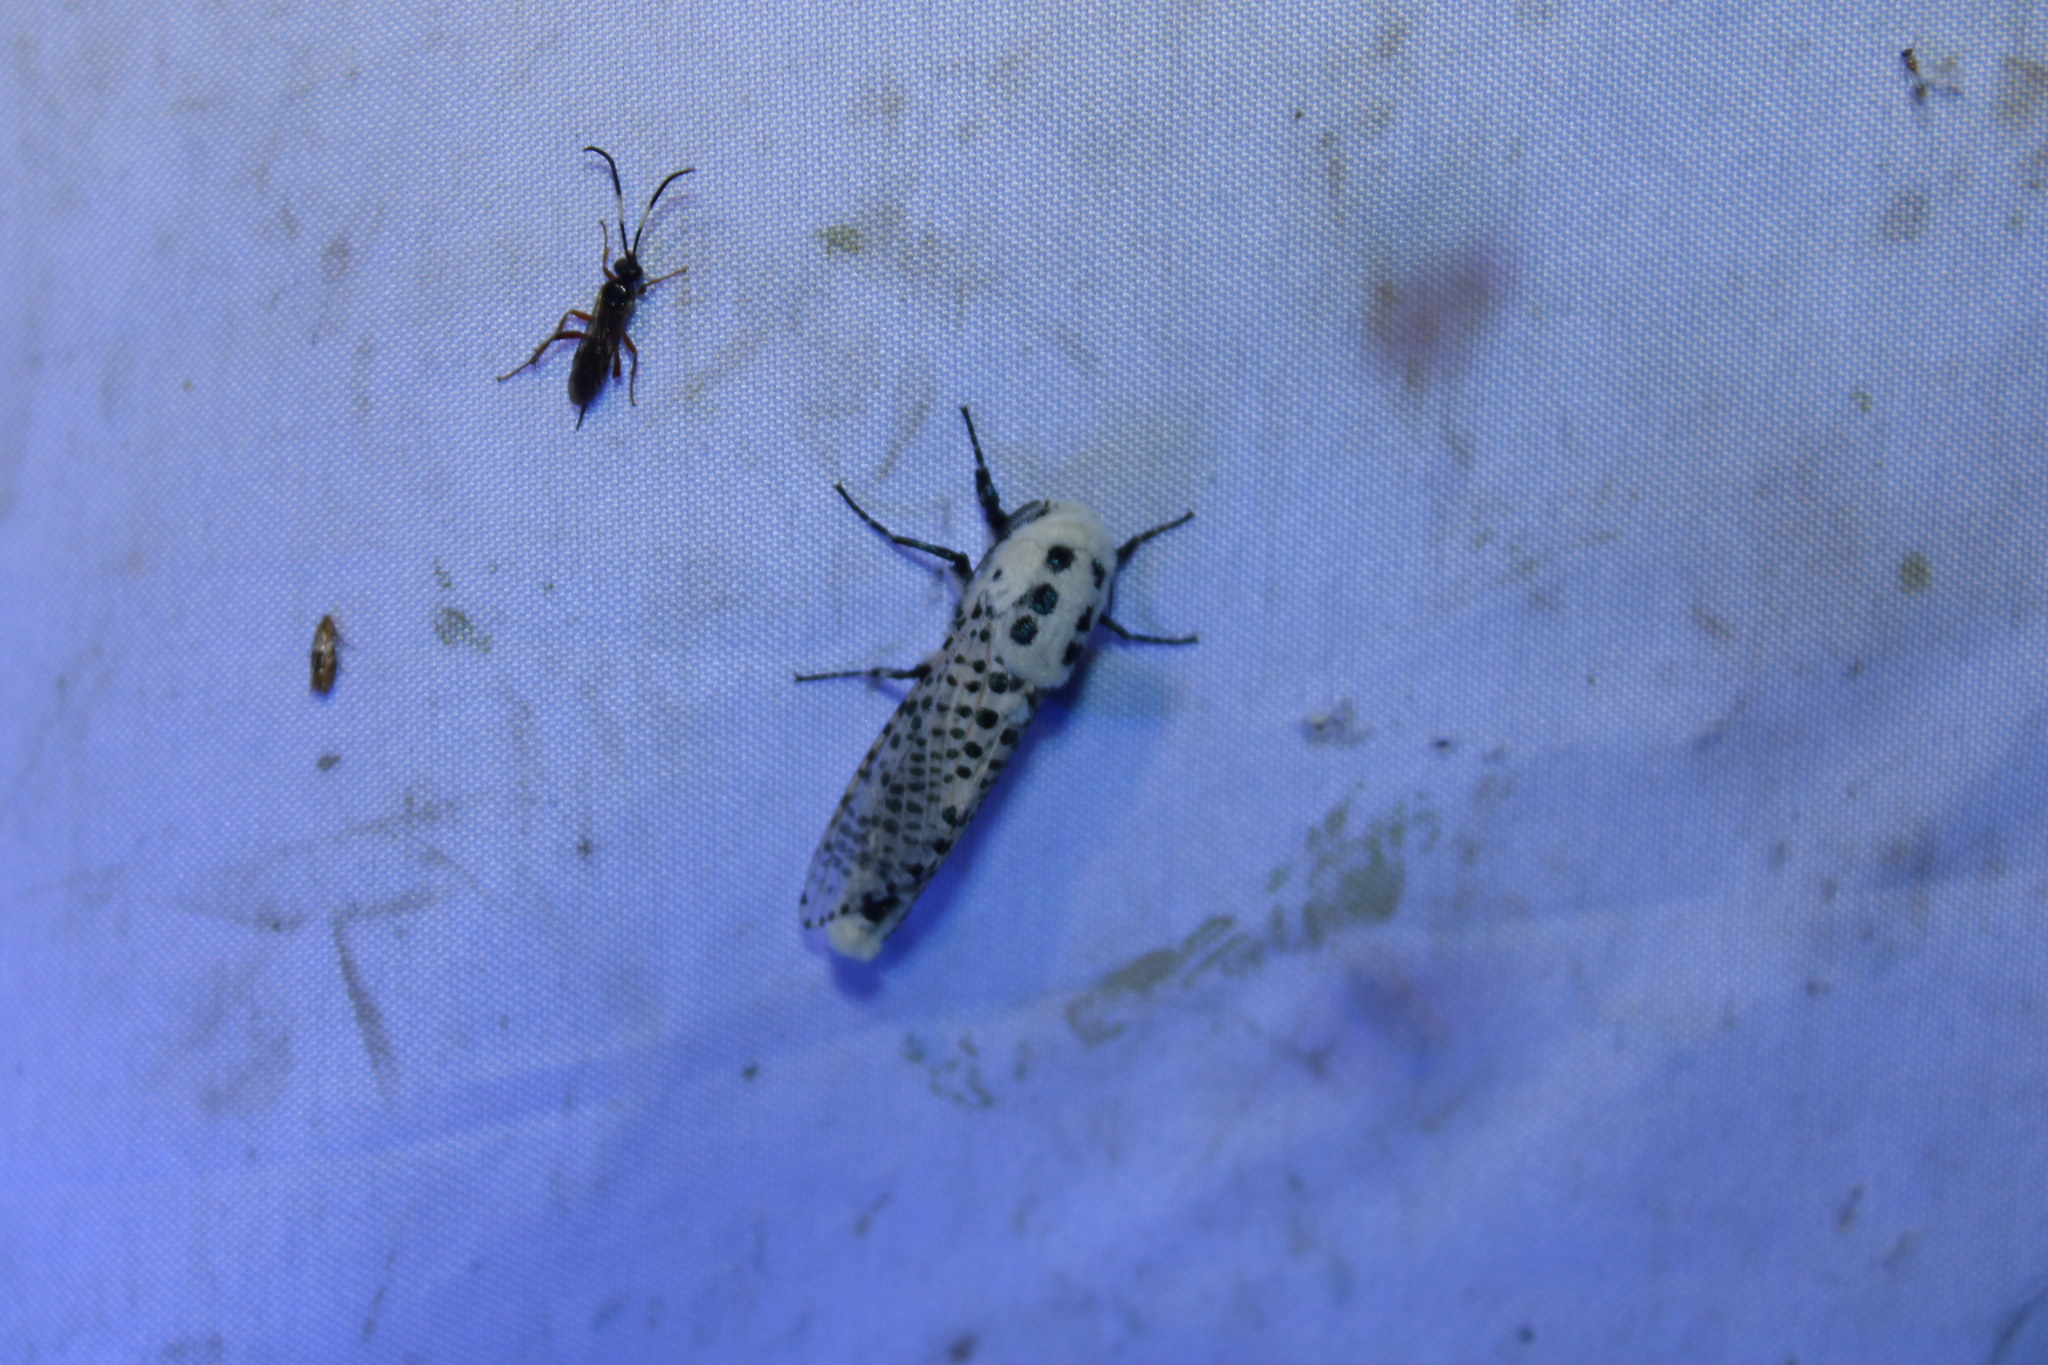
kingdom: Animalia
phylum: Arthropoda
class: Insecta
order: Lepidoptera
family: Cossidae
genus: Zeuzera
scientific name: Zeuzera pyrina
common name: Leopard moth
